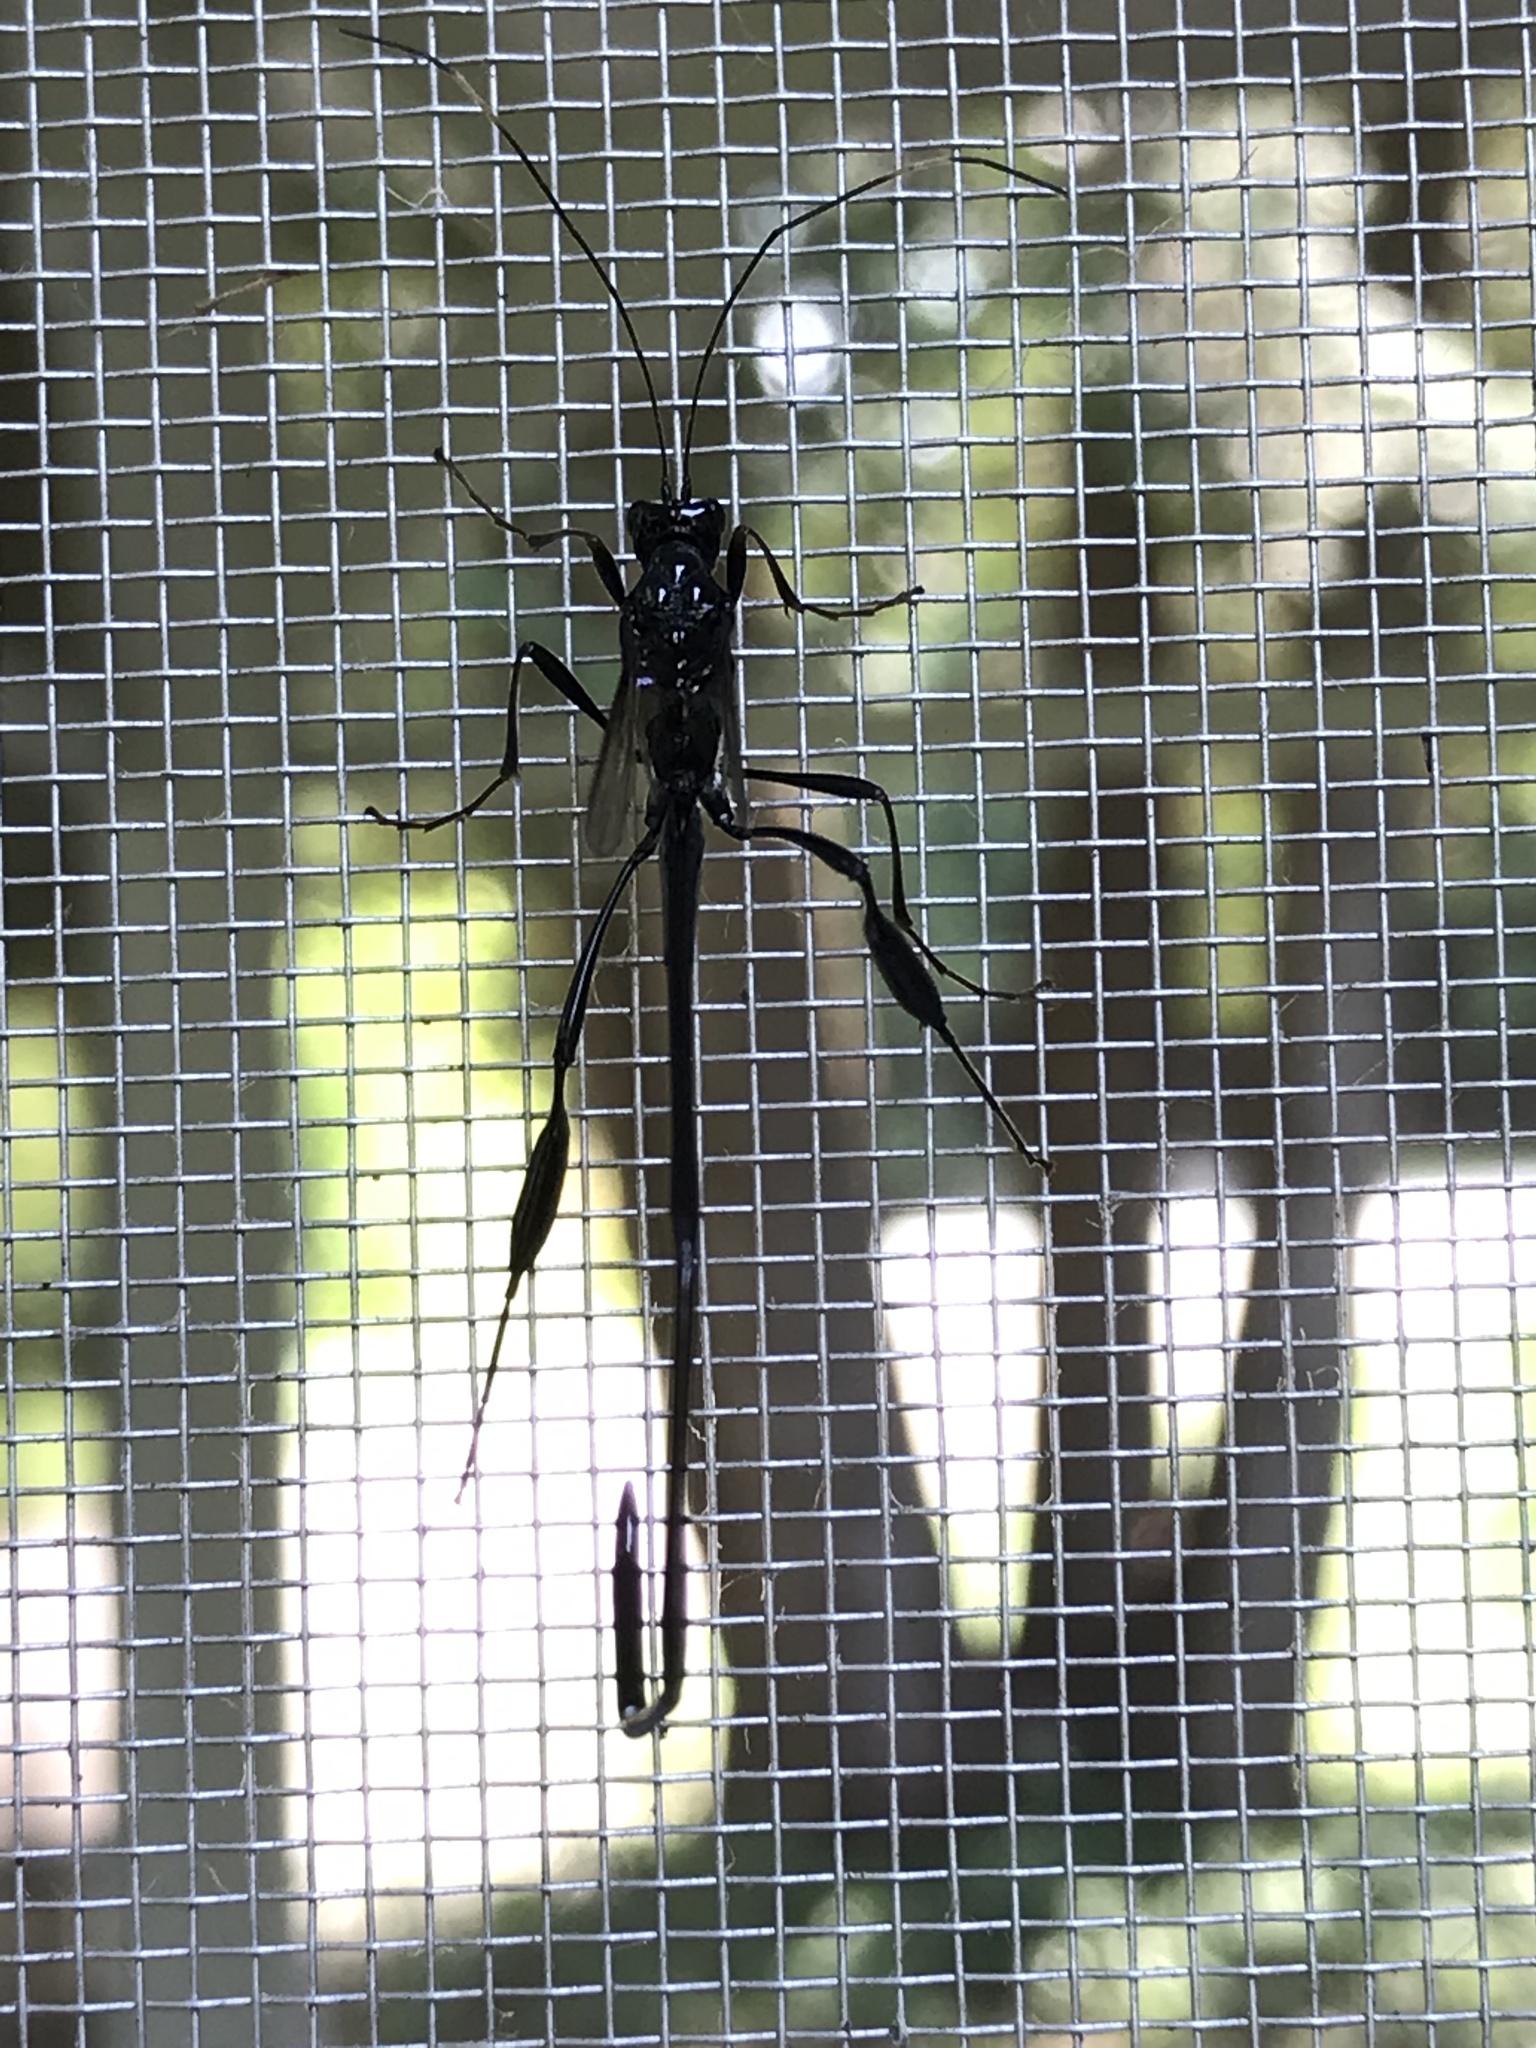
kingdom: Animalia
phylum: Arthropoda
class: Insecta
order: Hymenoptera
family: Pelecinidae
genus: Pelecinus
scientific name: Pelecinus polyturator
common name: American pelecinid wasp
